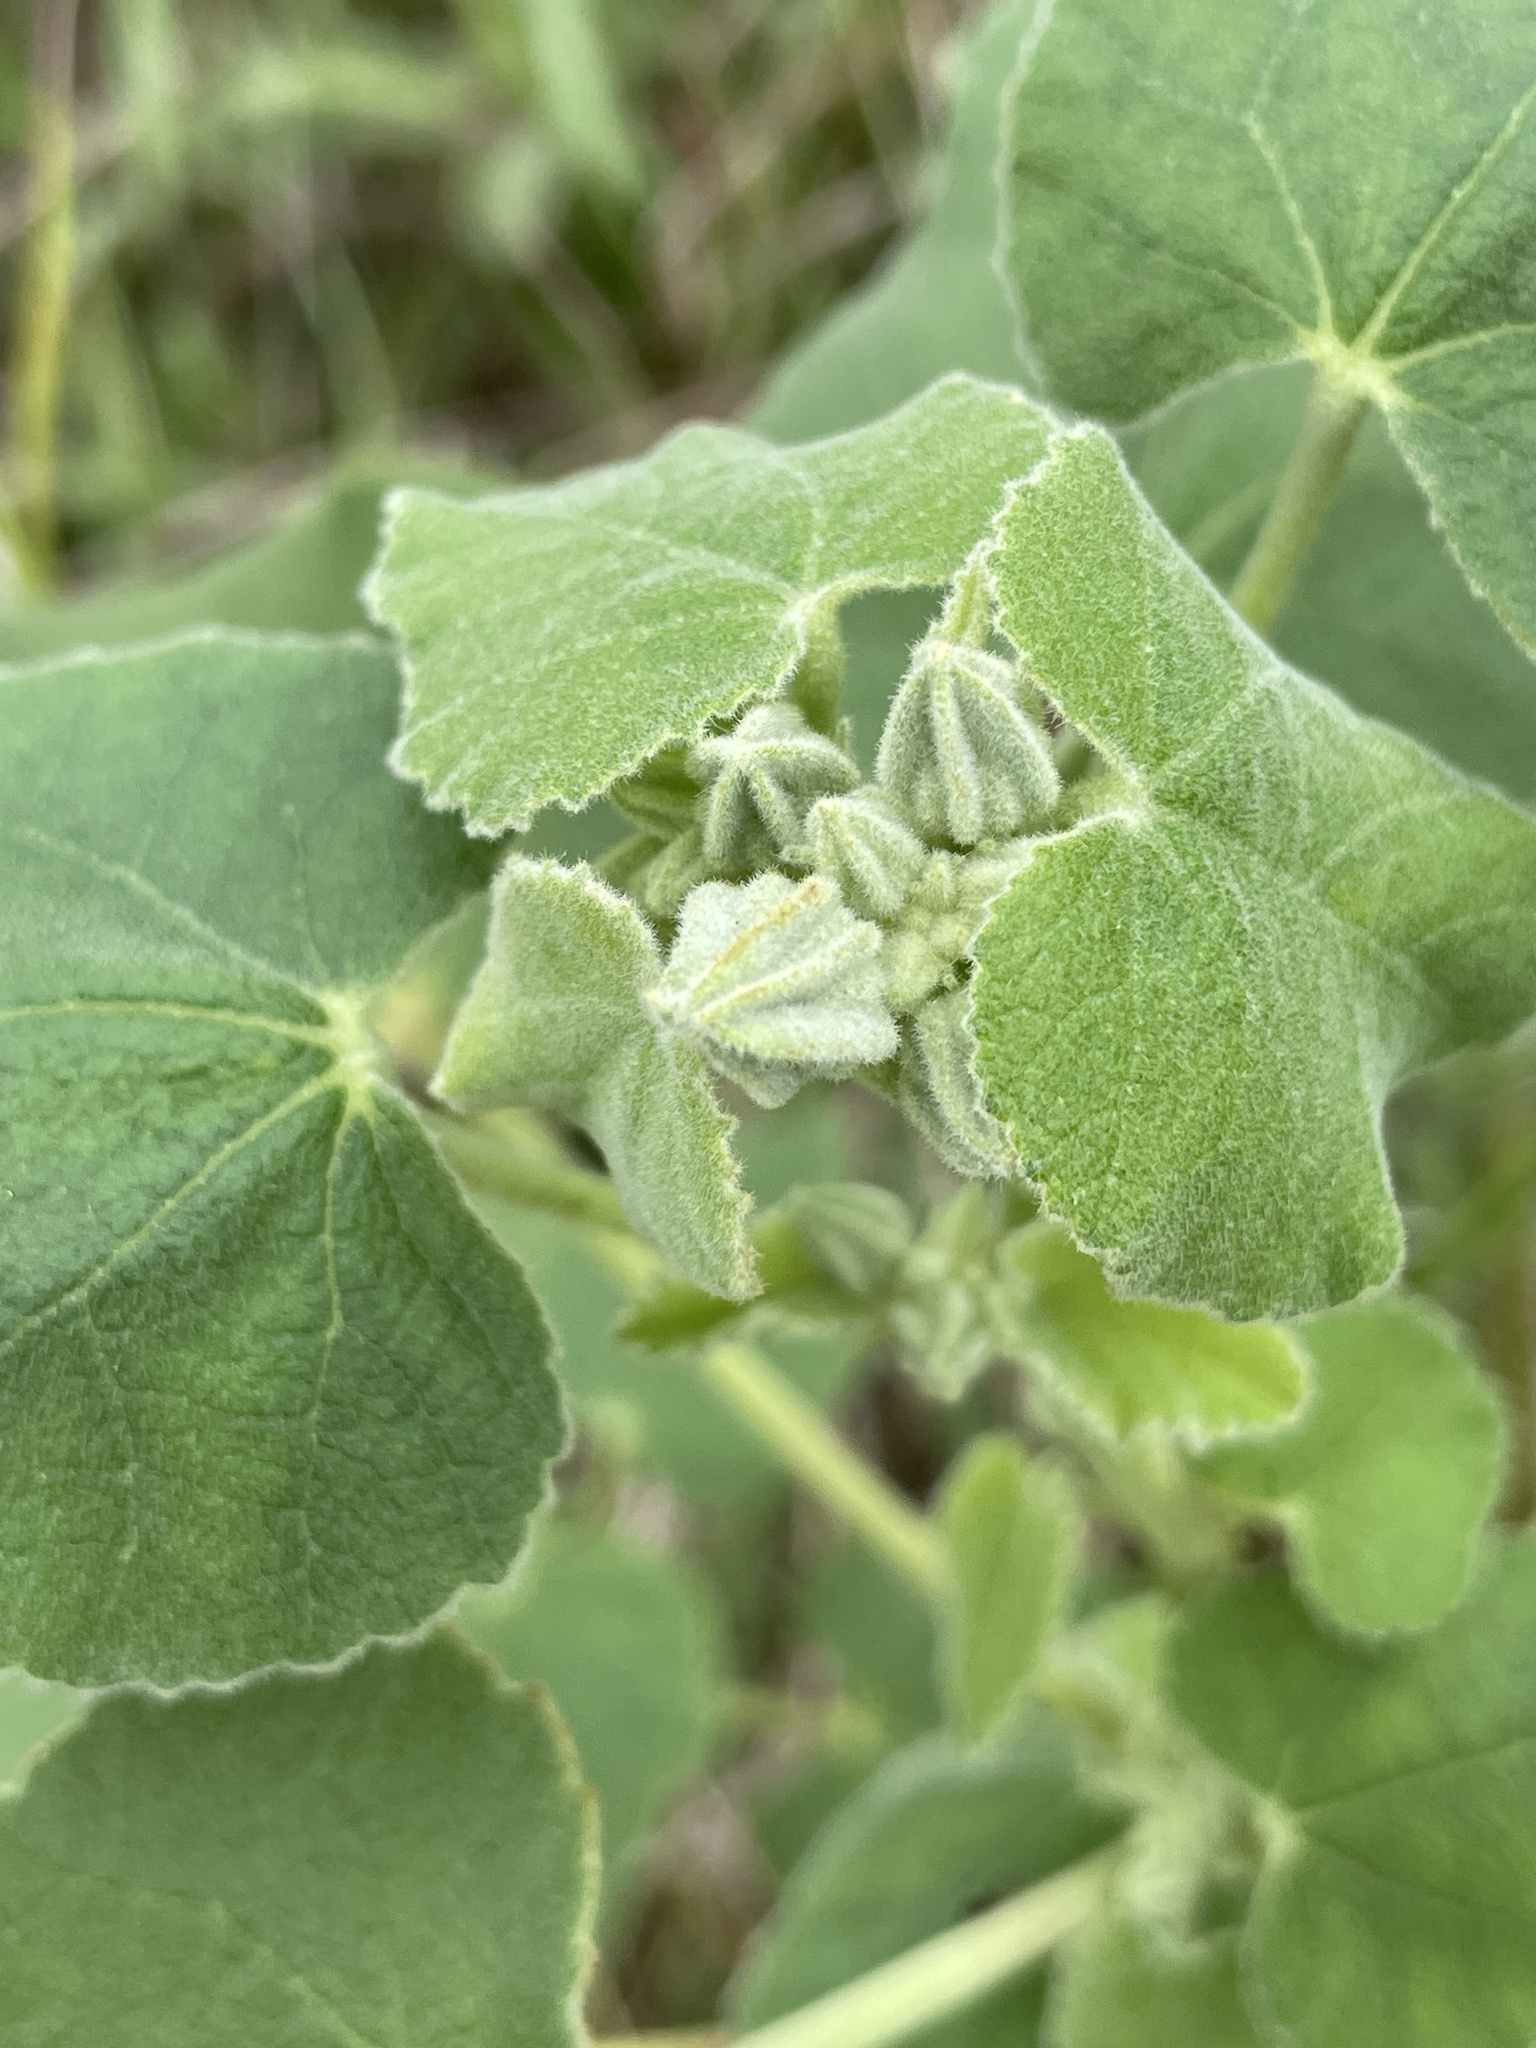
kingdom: Plantae
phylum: Tracheophyta
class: Magnoliopsida
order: Malvales
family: Malvaceae
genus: Allowissadula
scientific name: Allowissadula lozanoi
